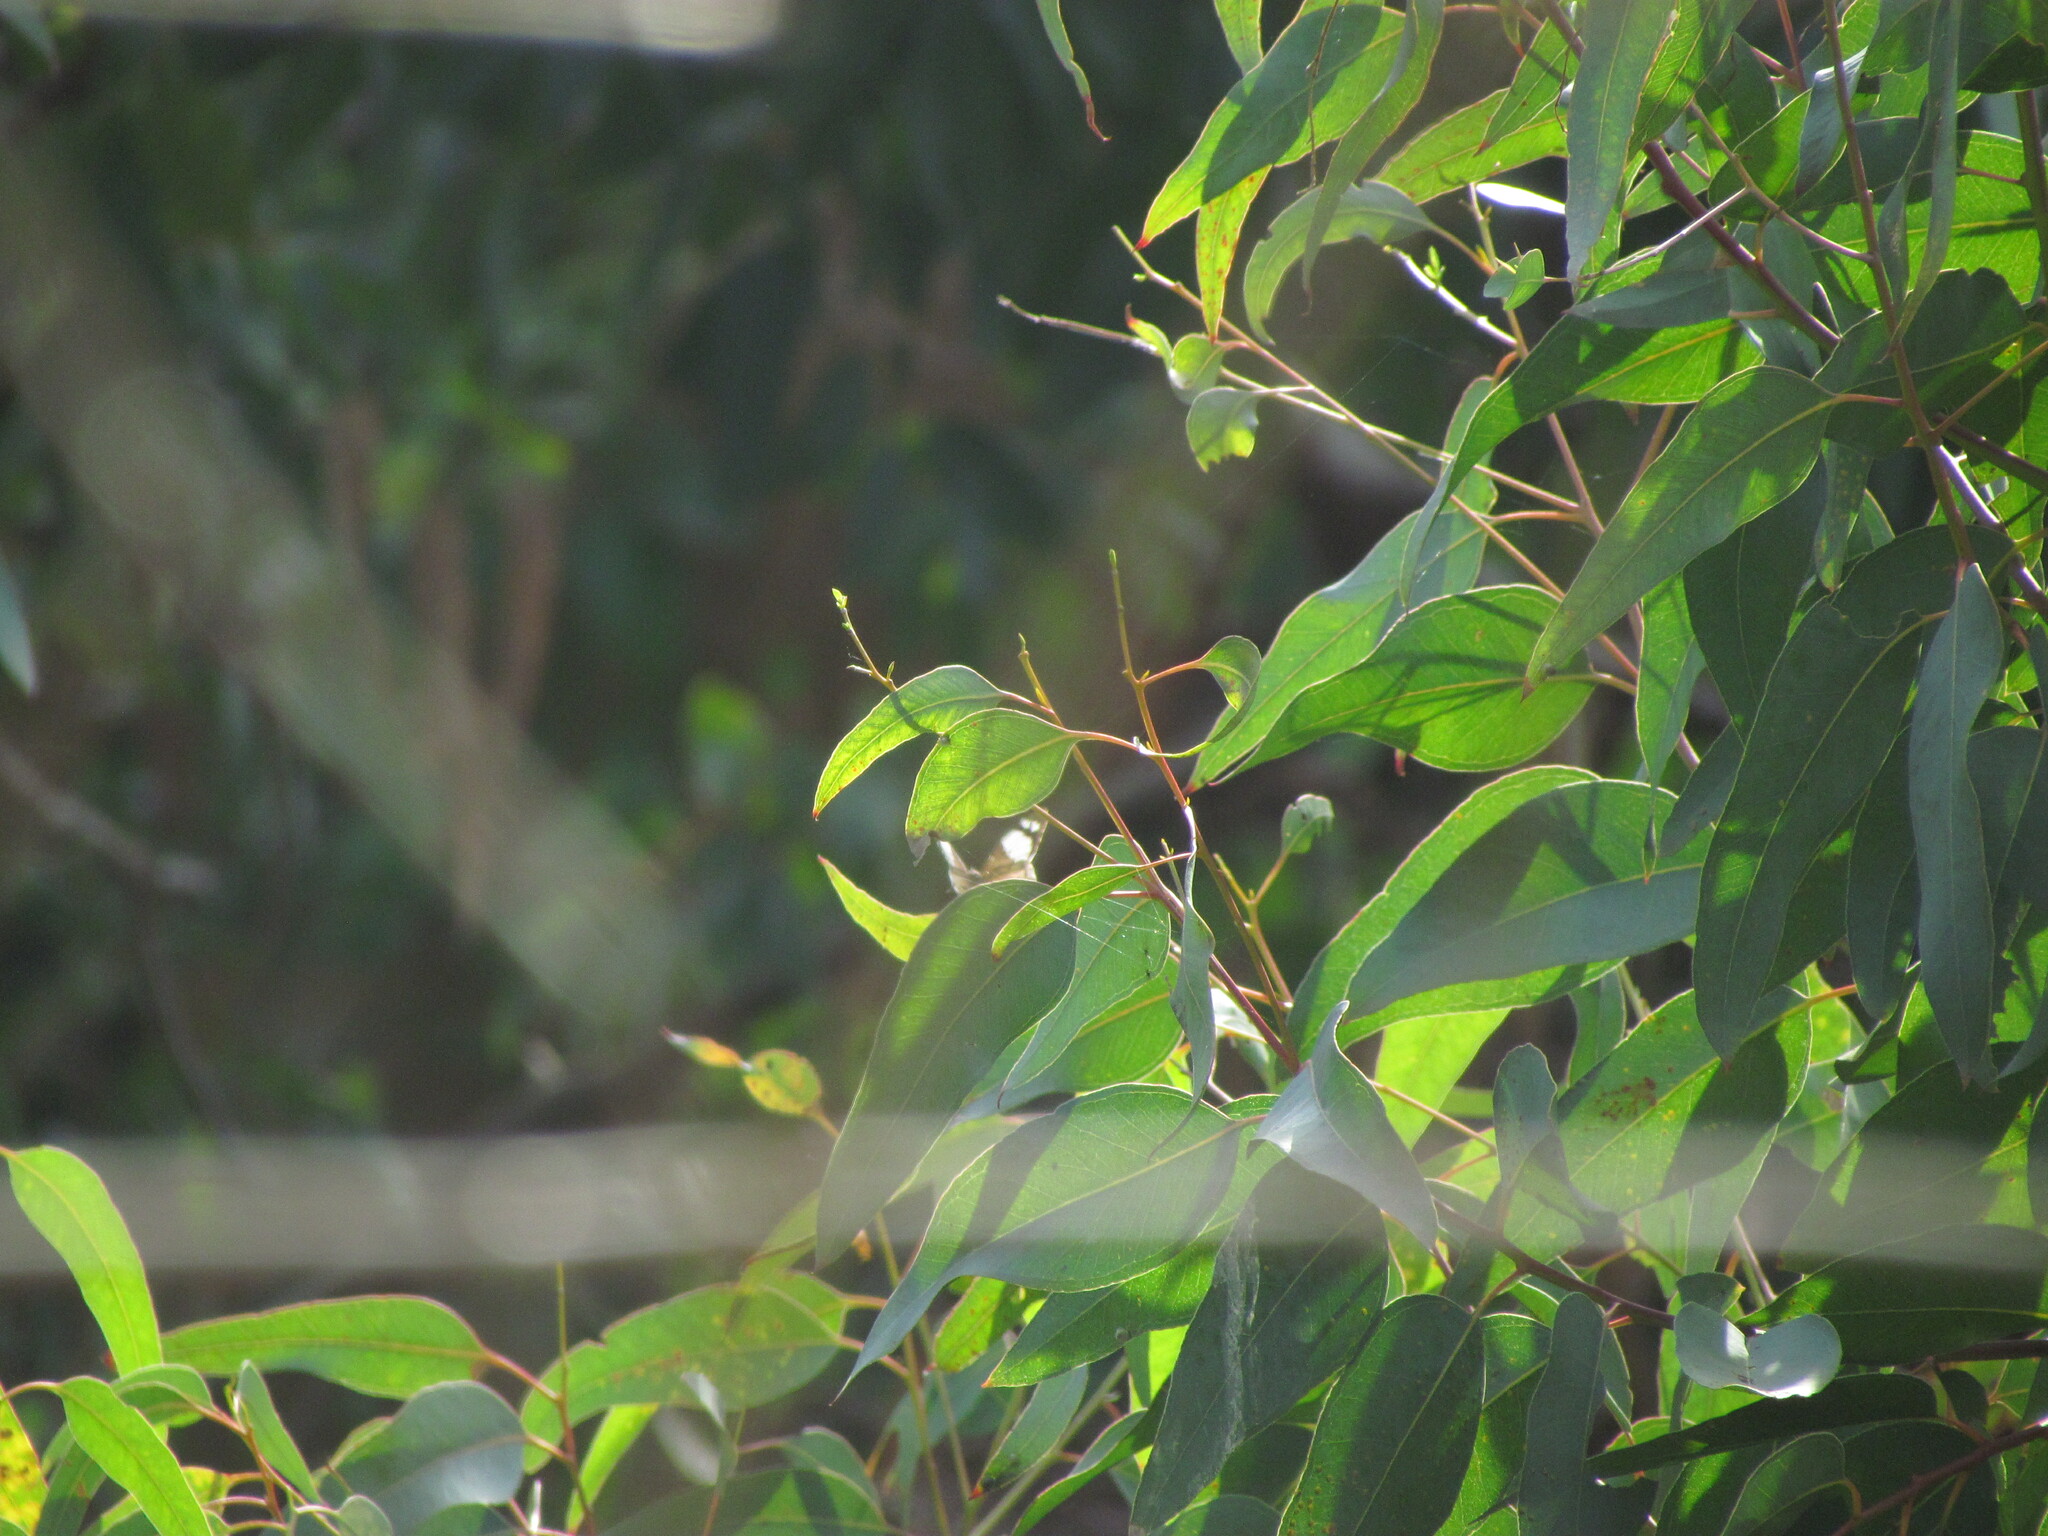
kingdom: Animalia
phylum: Arthropoda
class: Insecta
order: Lepidoptera
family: Nymphalidae
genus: Eunica
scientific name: Eunica eburnea
